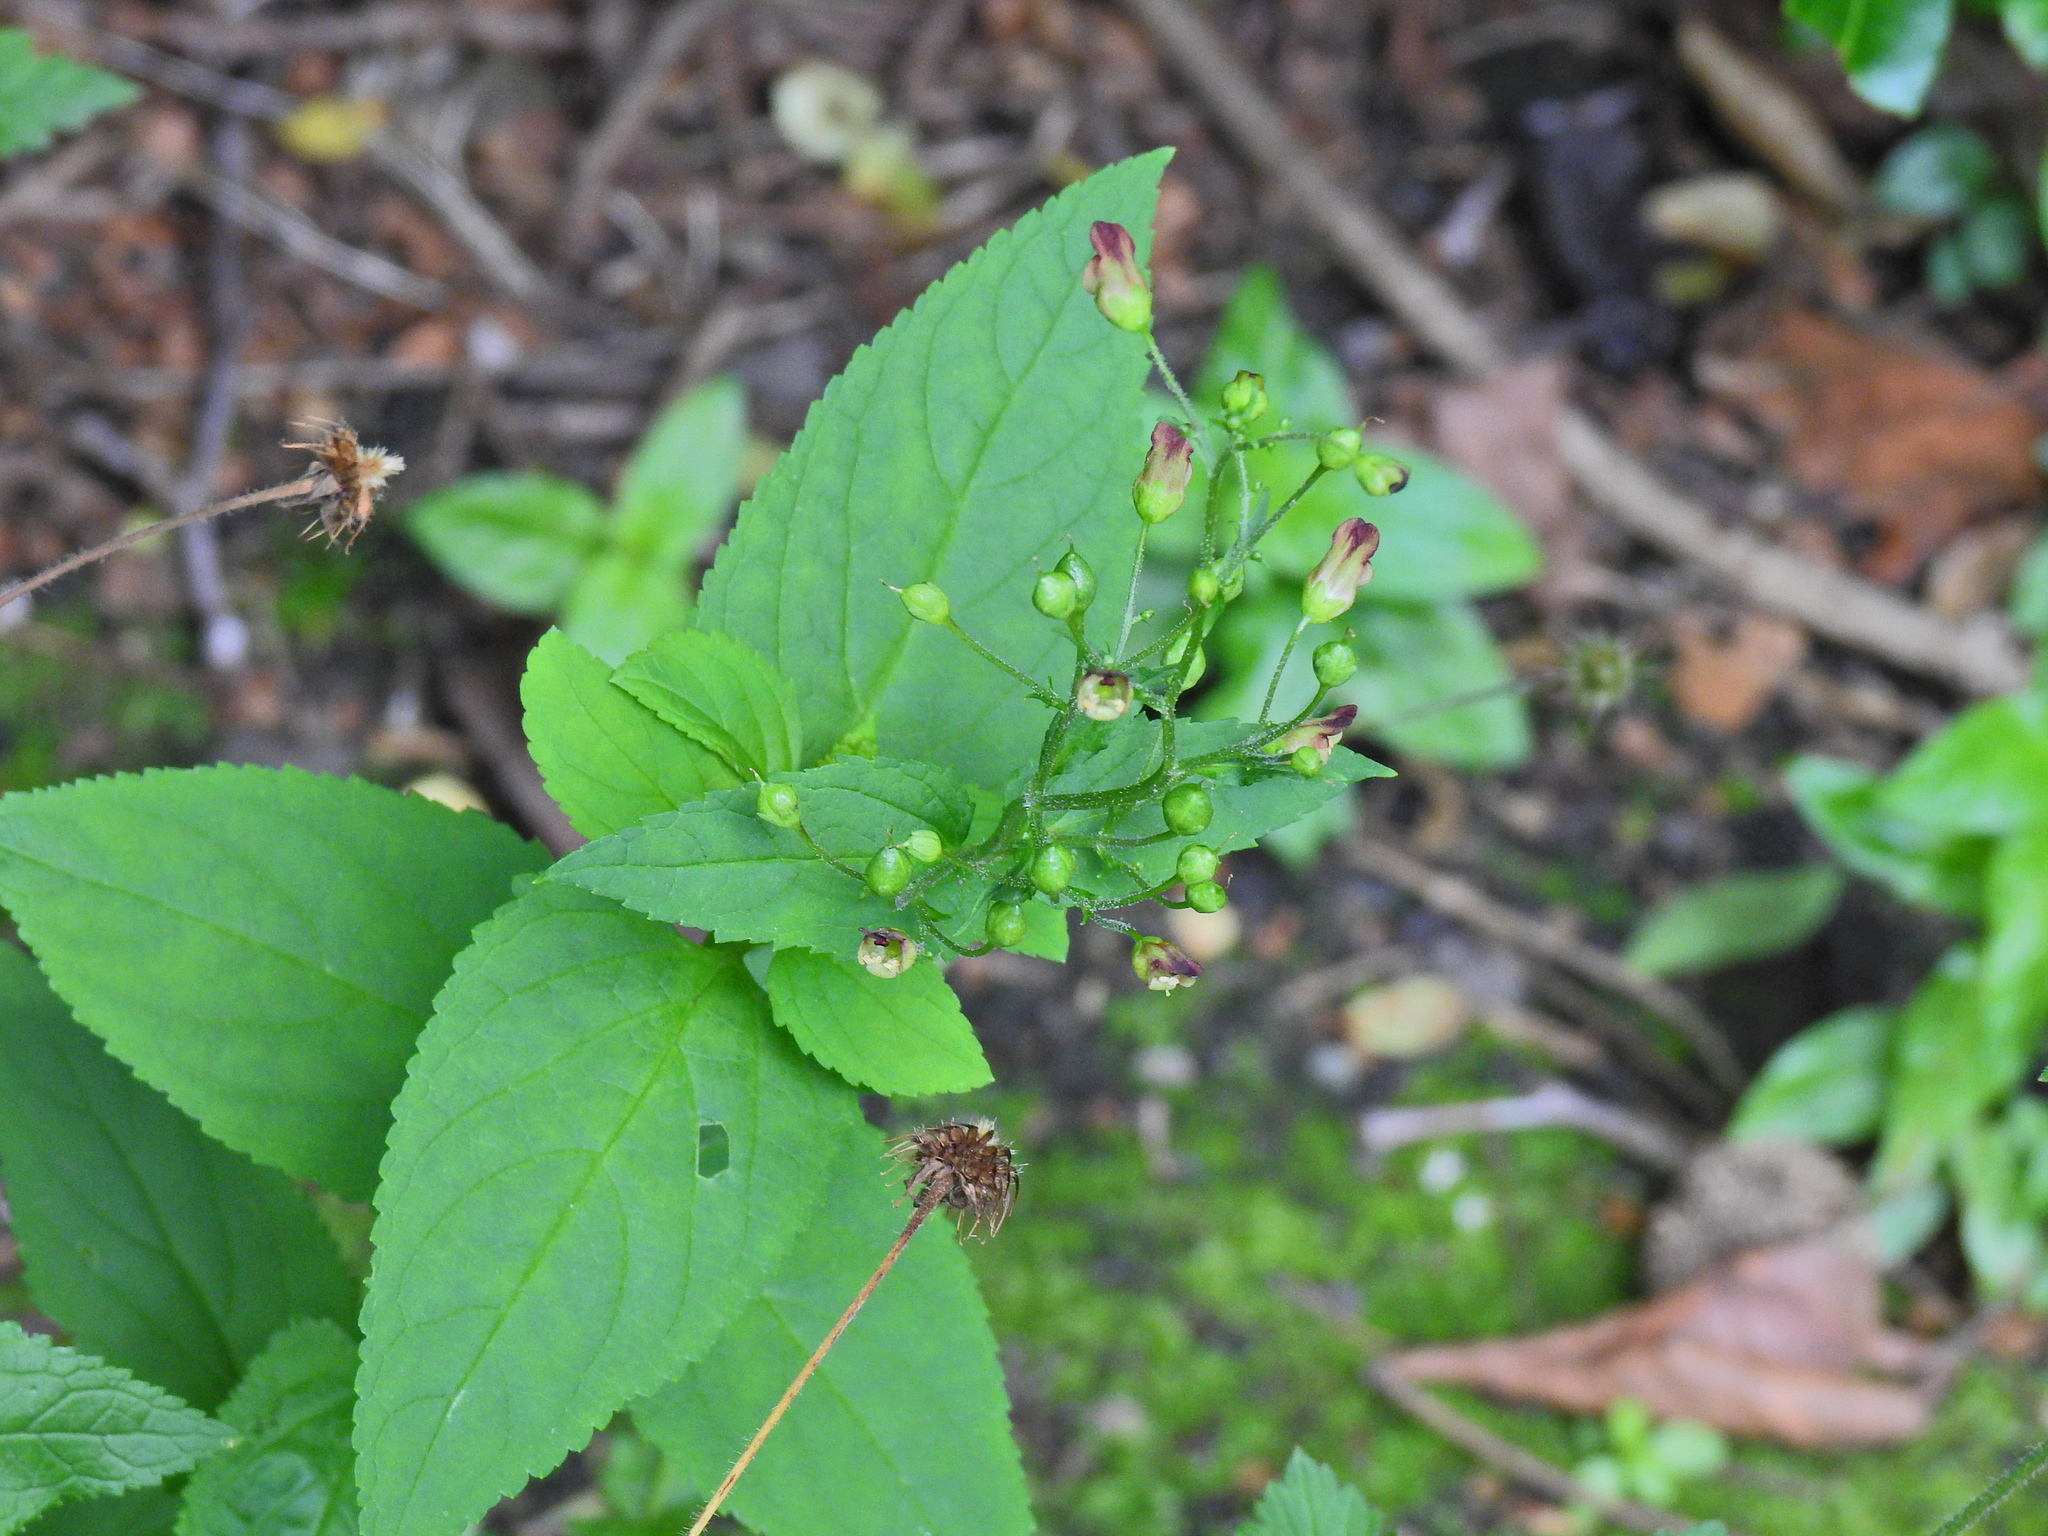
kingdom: Plantae
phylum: Tracheophyta
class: Magnoliopsida
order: Lamiales
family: Scrophulariaceae
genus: Scrophularia
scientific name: Scrophularia nodosa
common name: Common figwort
